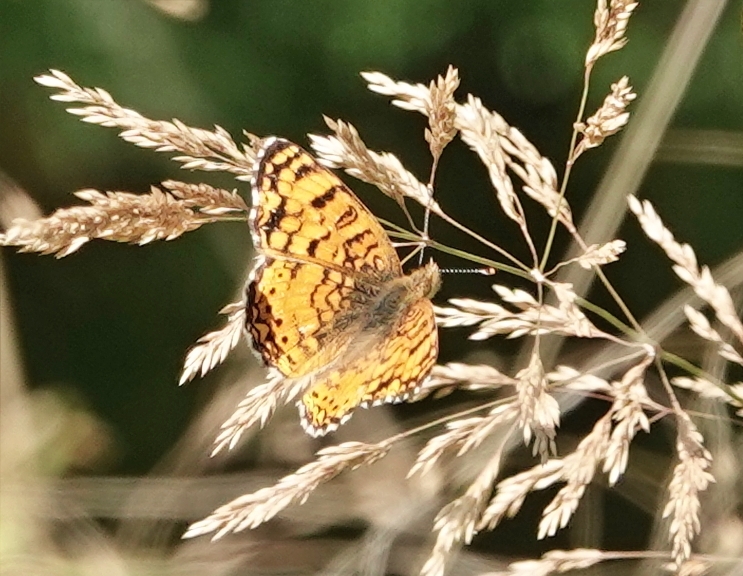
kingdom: Animalia
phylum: Arthropoda
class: Insecta
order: Lepidoptera
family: Nymphalidae
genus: Eresia
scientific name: Eresia aveyrona
